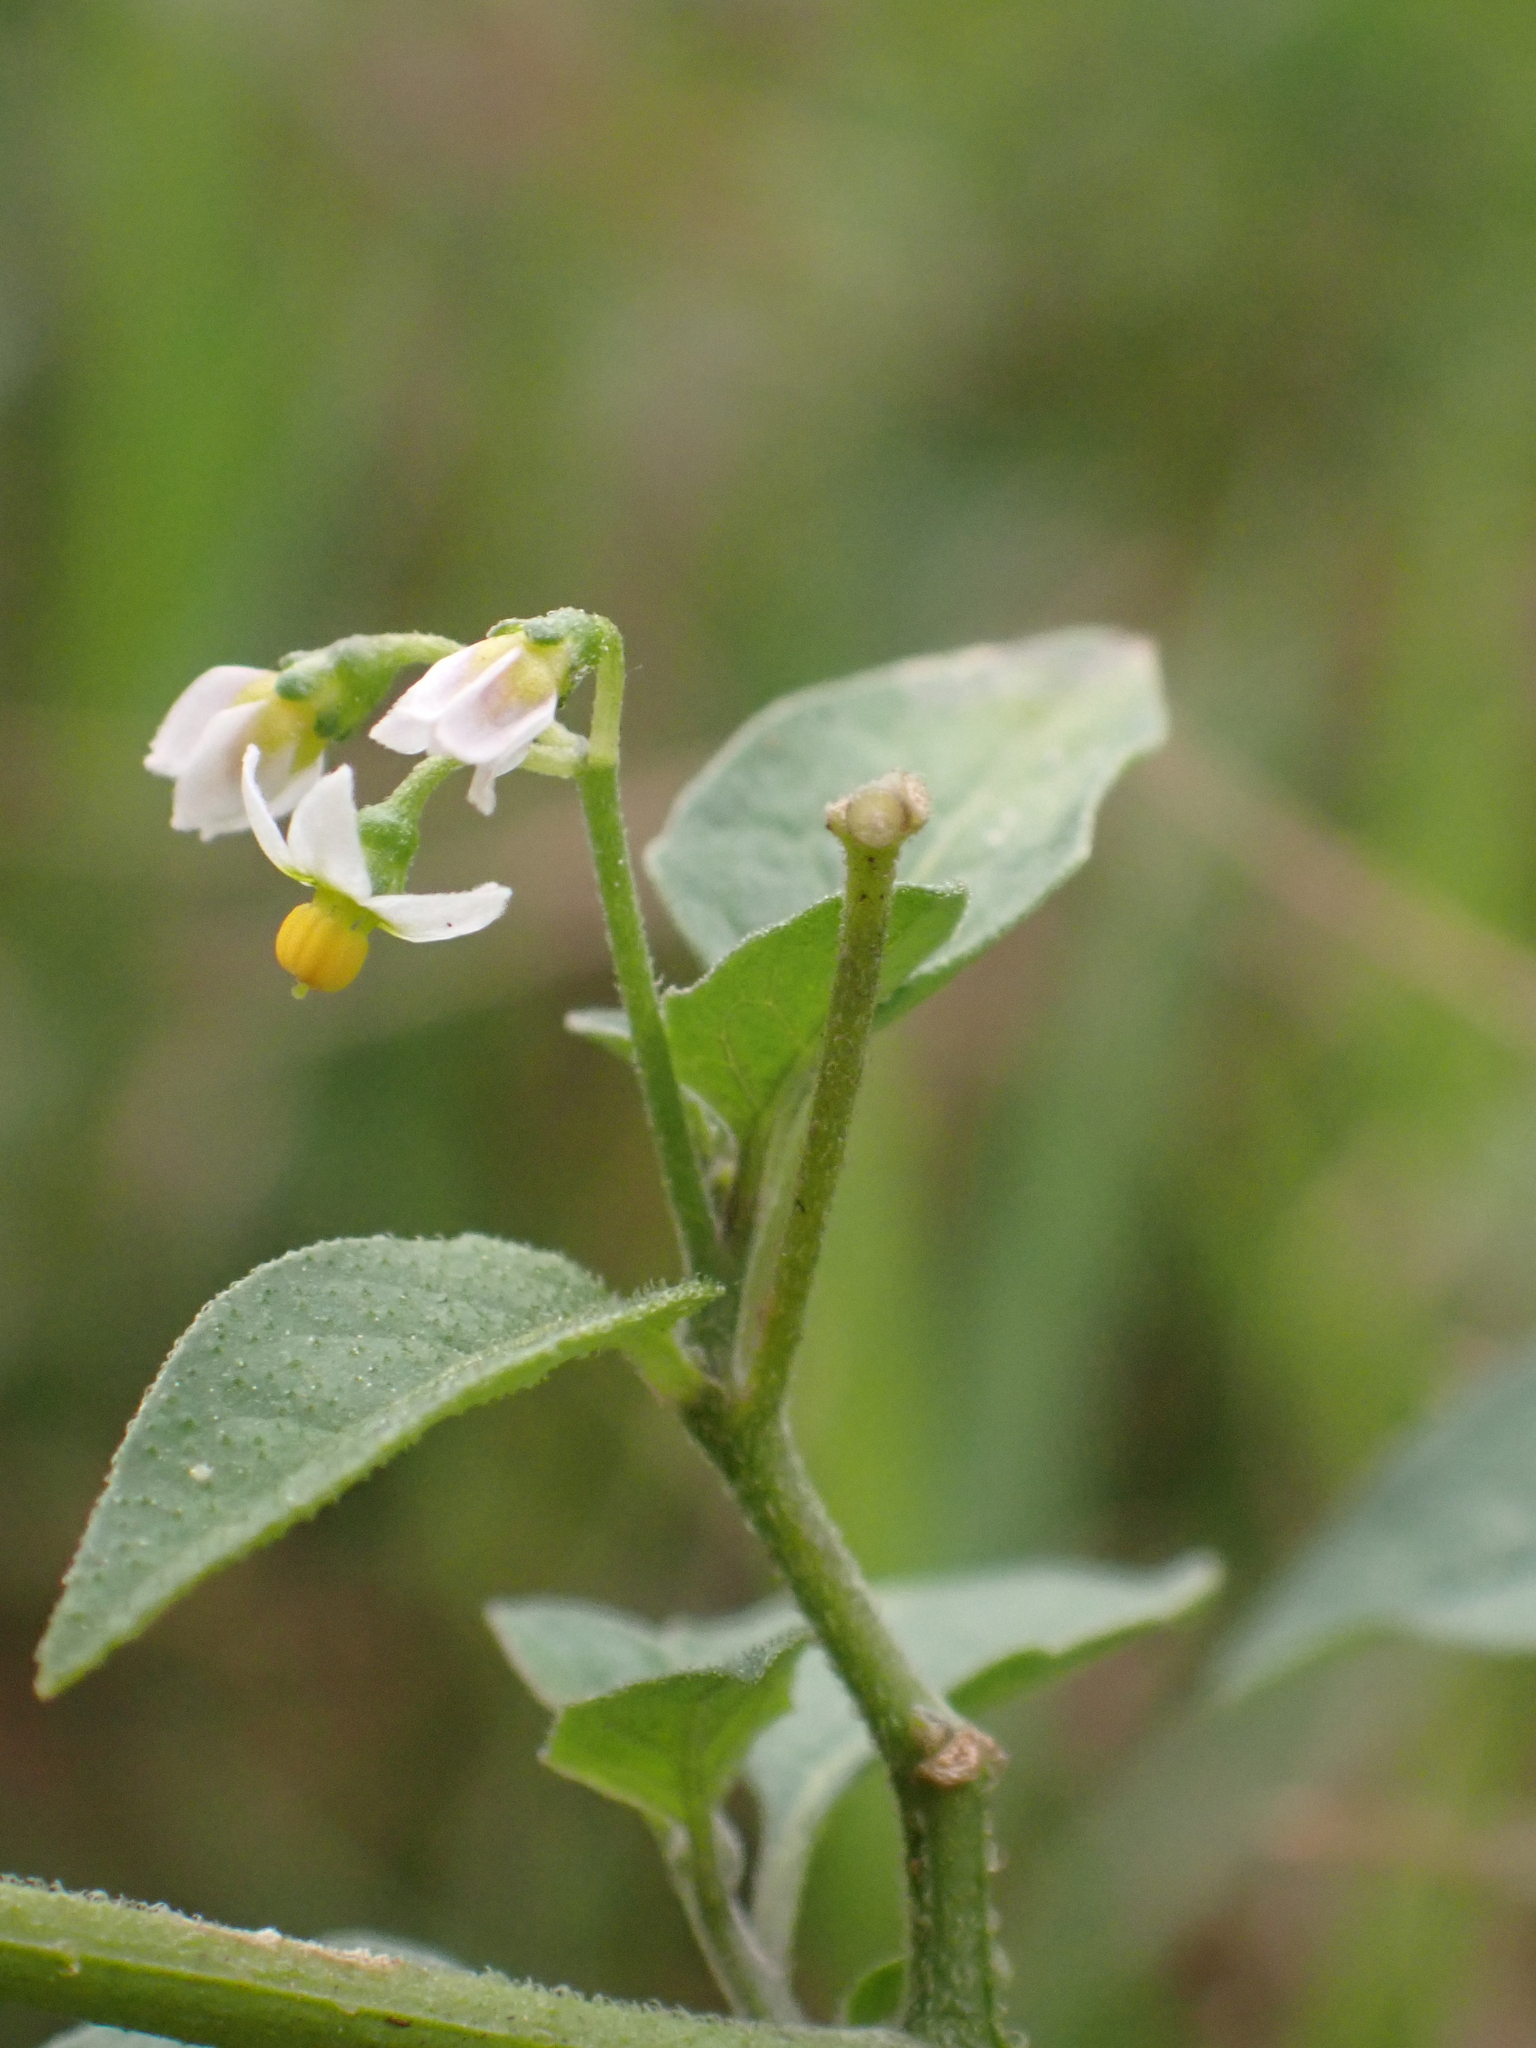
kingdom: Plantae
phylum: Tracheophyta
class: Magnoliopsida
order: Solanales
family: Solanaceae
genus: Solanum
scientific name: Solanum americanum
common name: American black nightshade
